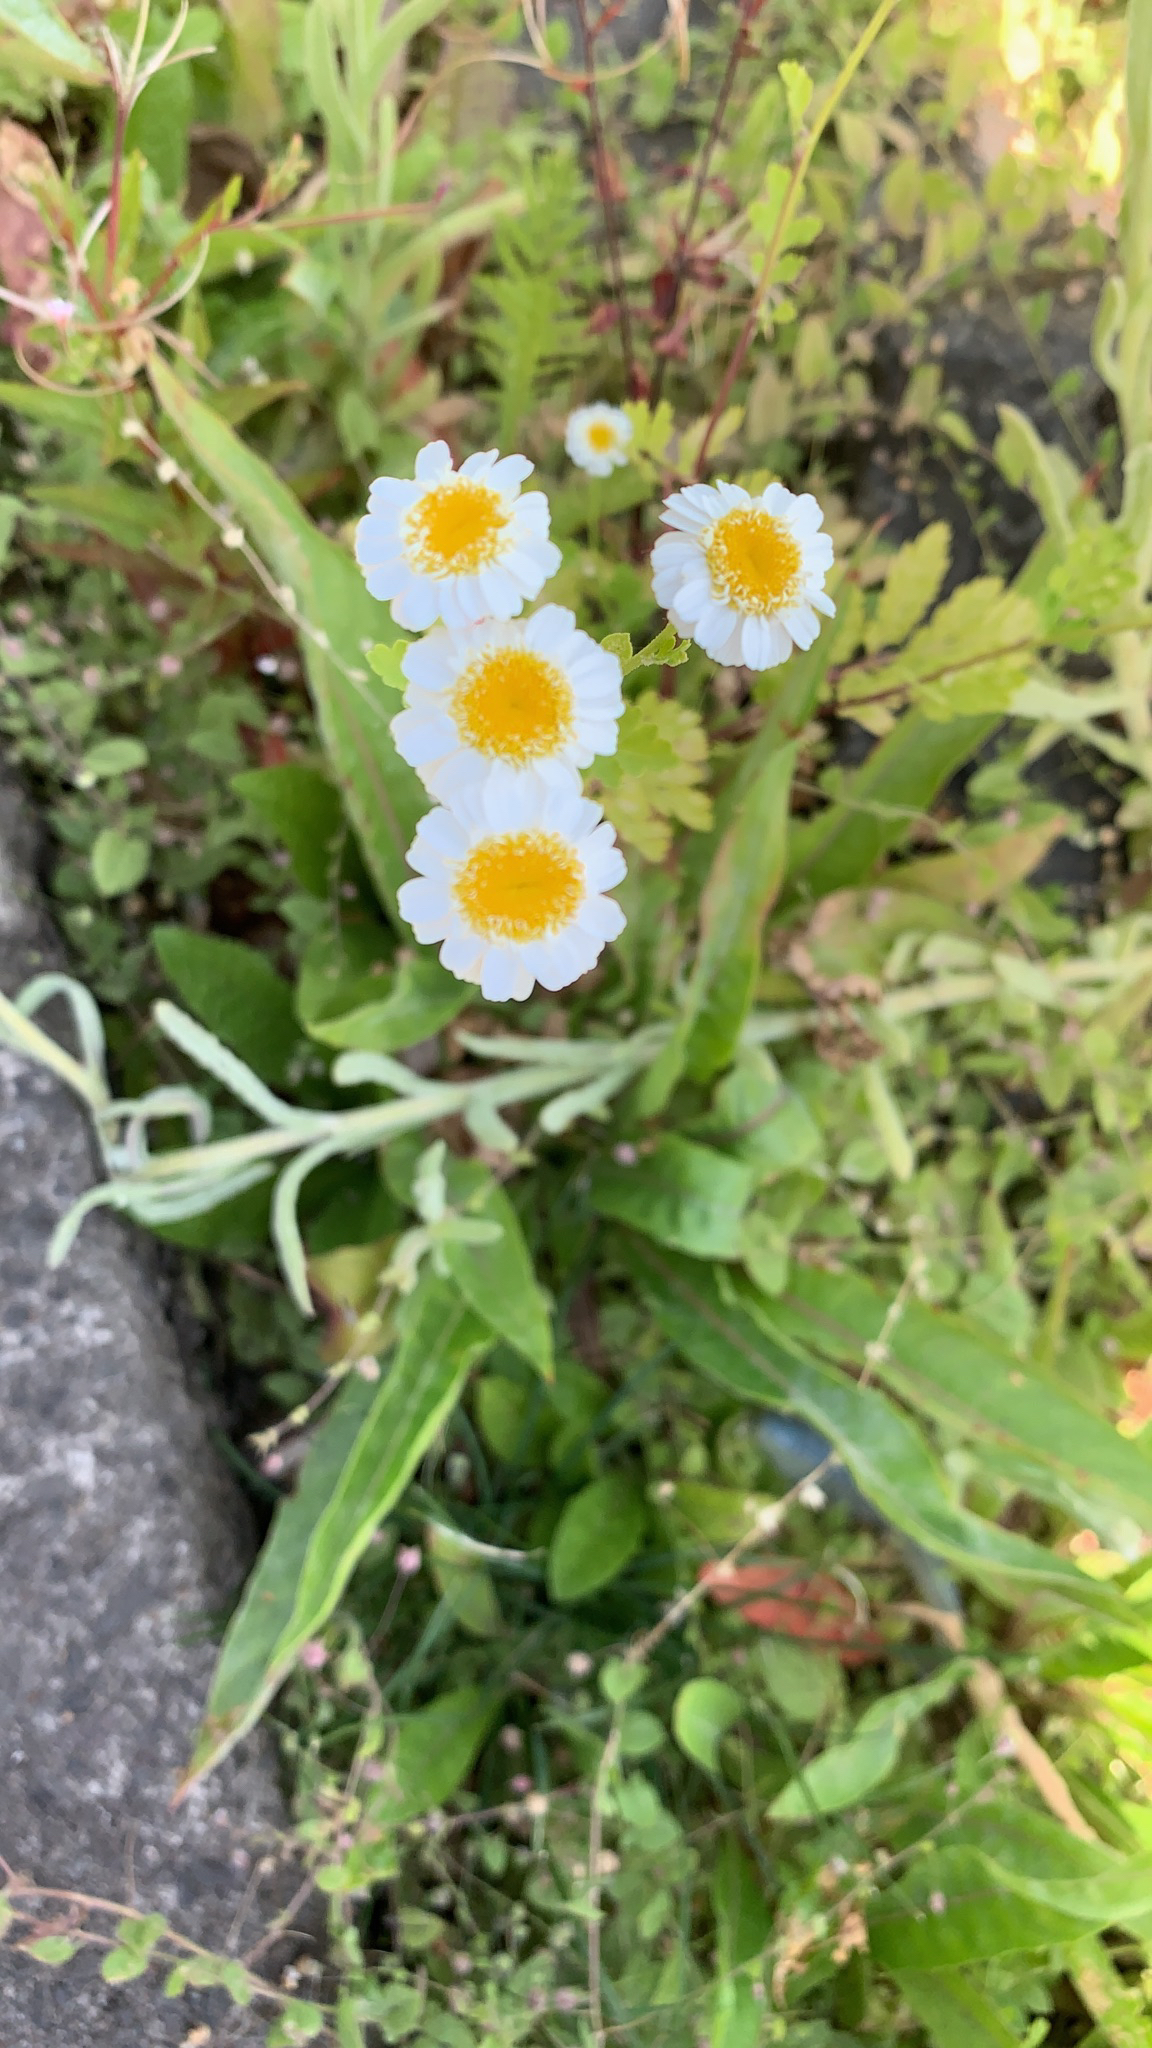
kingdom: Plantae
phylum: Tracheophyta
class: Magnoliopsida
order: Asterales
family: Asteraceae
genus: Tanacetum
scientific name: Tanacetum parthenium
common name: Feverfew
